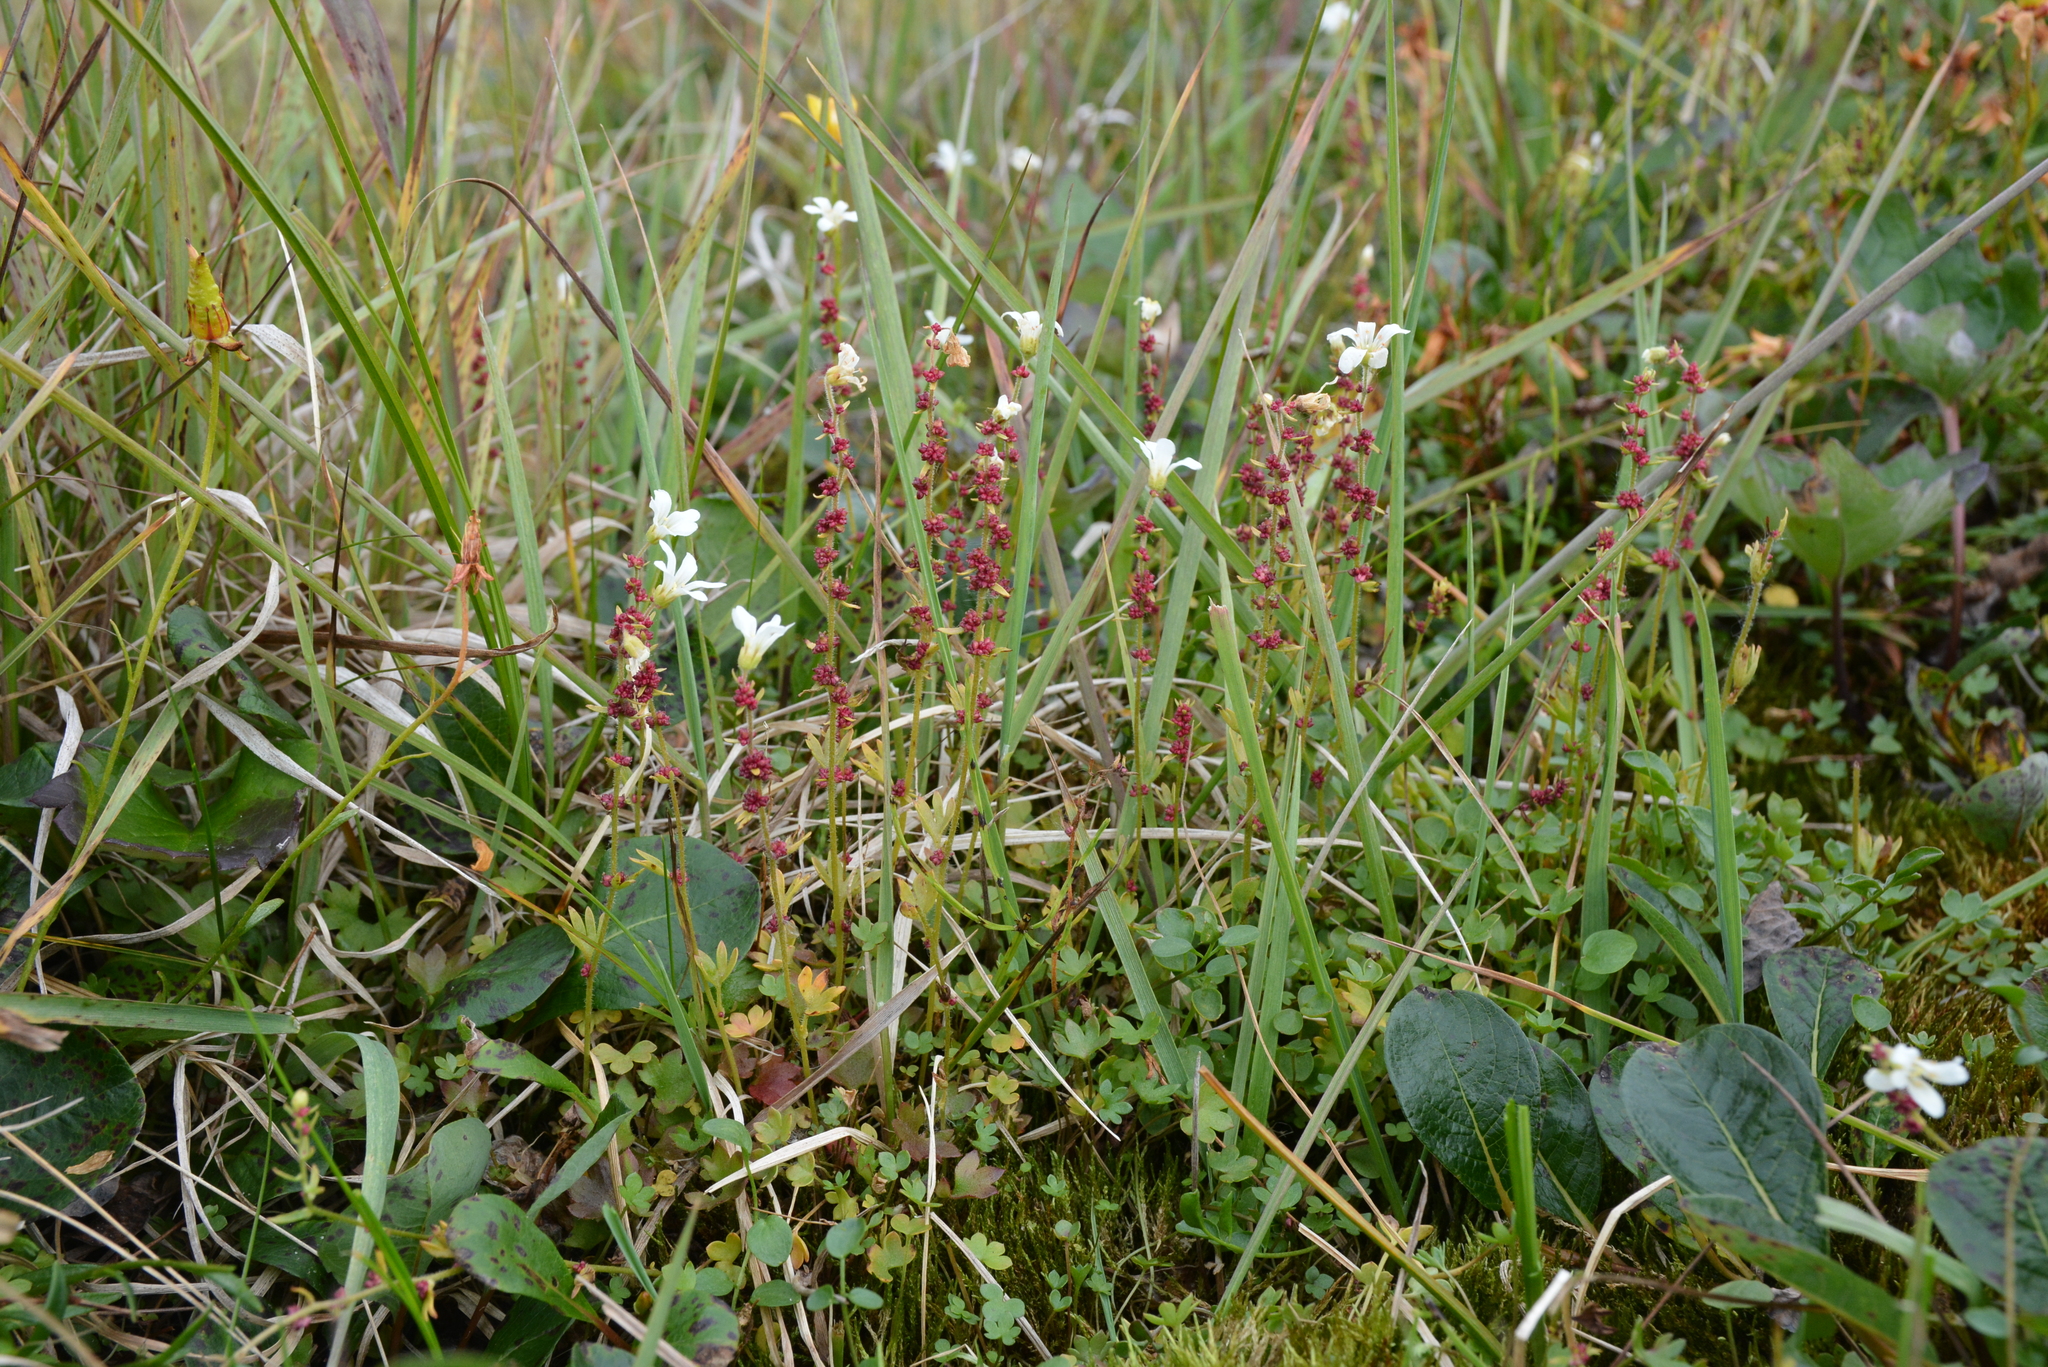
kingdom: Plantae
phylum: Tracheophyta
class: Magnoliopsida
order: Saxifragales
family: Saxifragaceae
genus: Saxifraga
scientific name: Saxifraga cernua
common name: Drooping saxifrage
